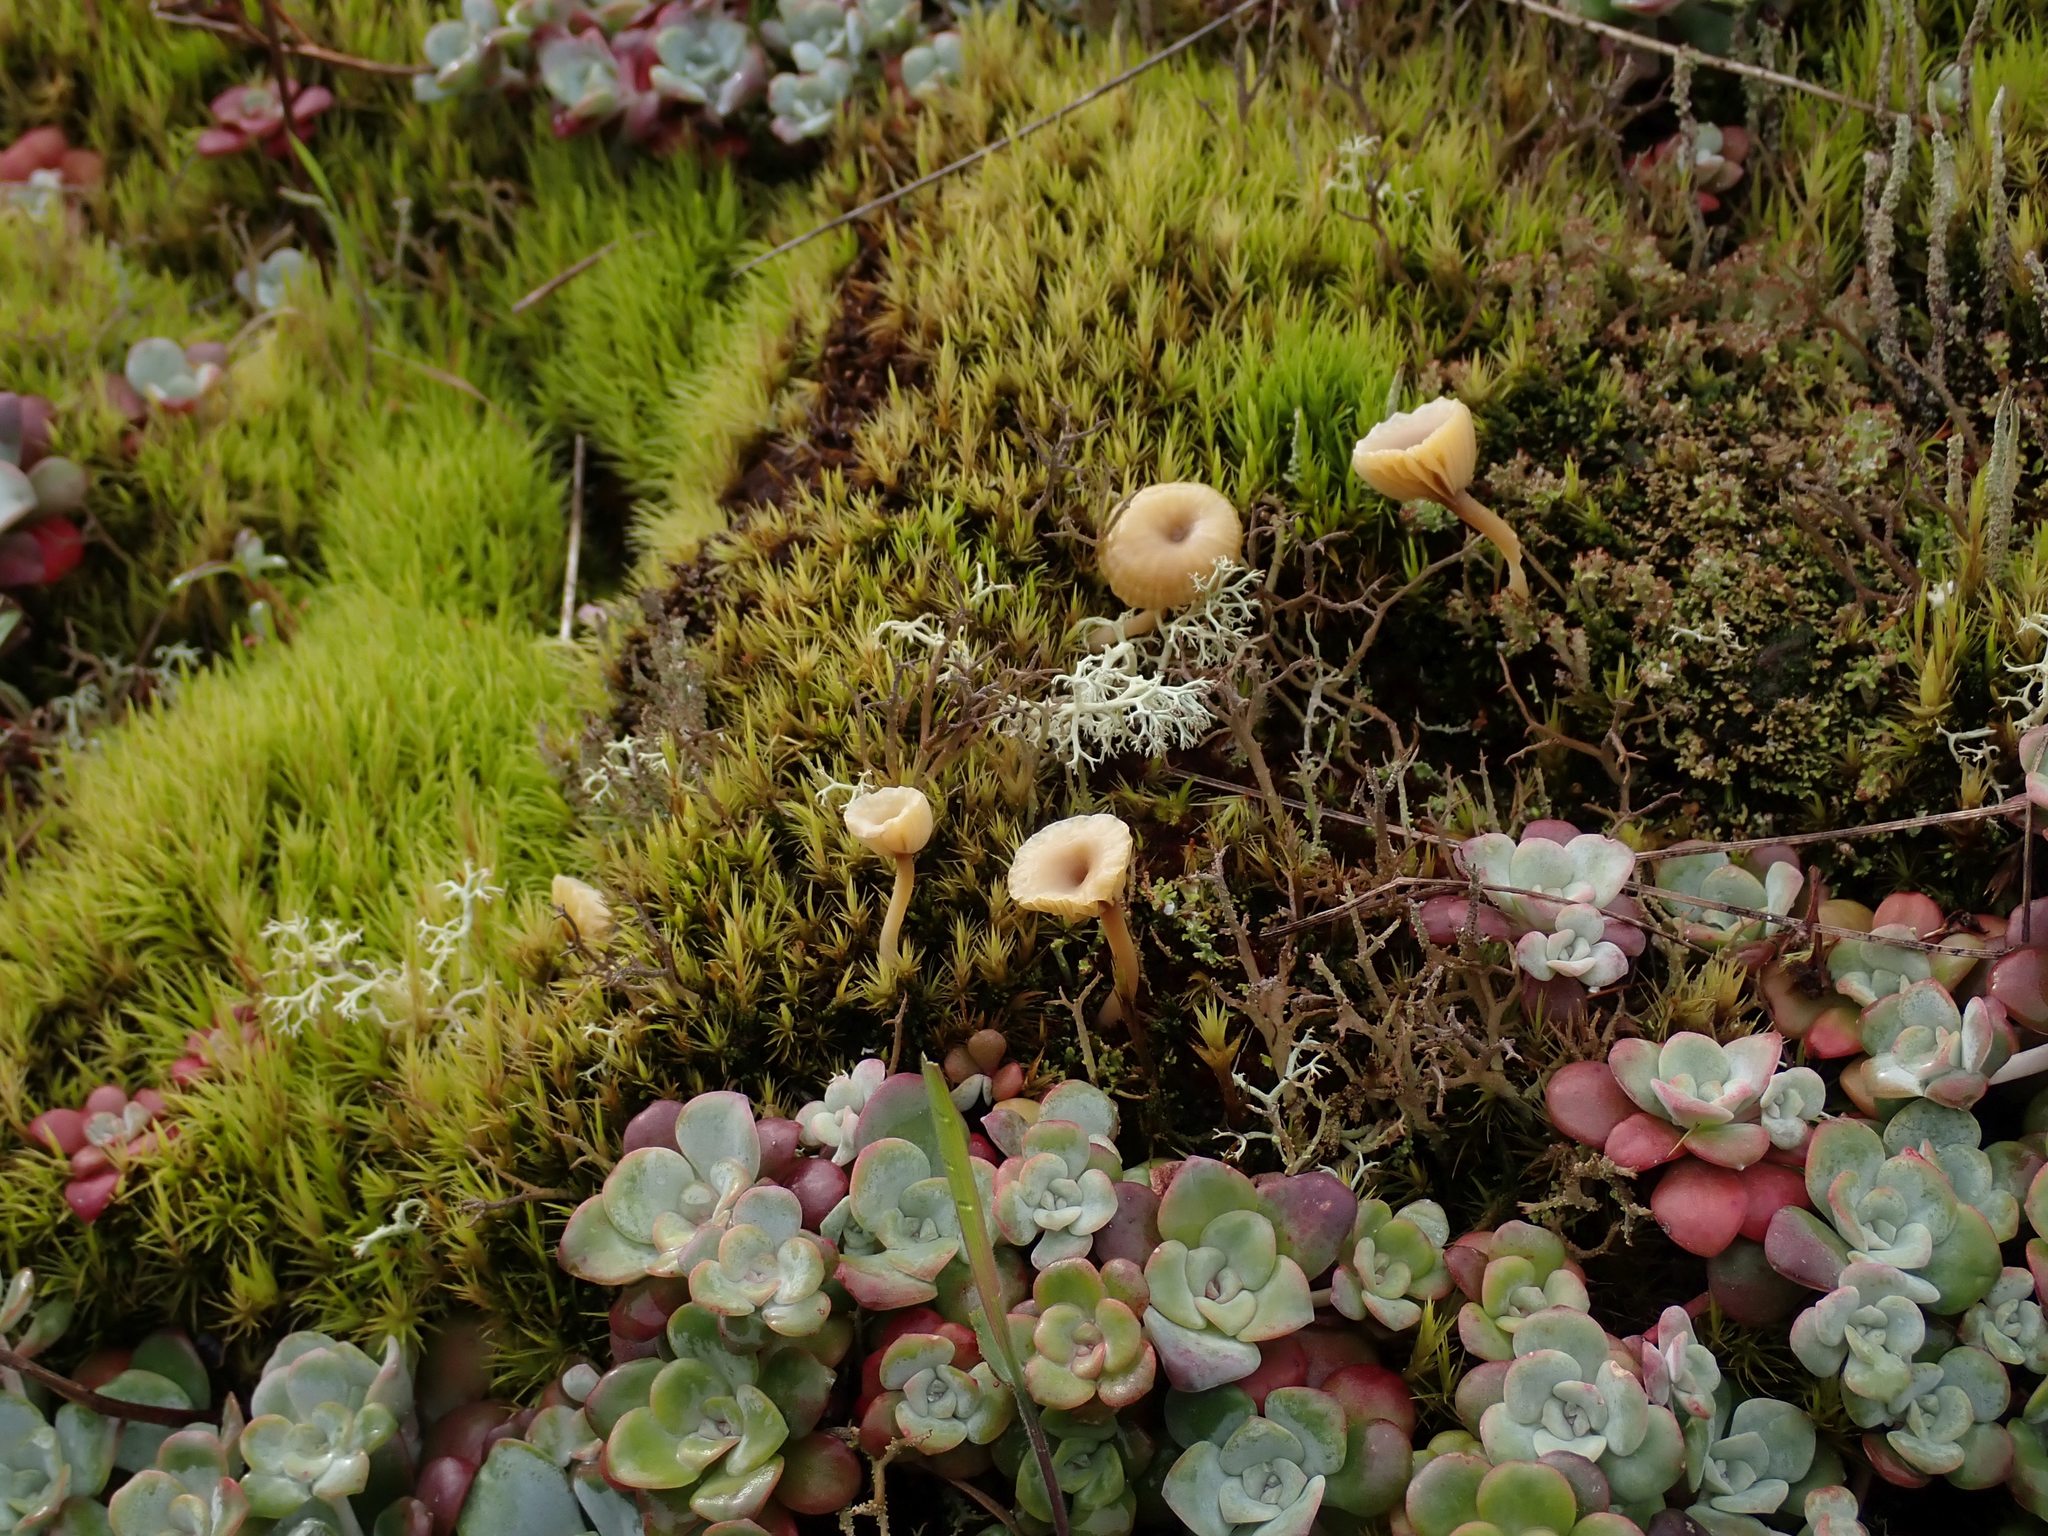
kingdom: Fungi
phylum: Basidiomycota
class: Agaricomycetes
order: Agaricales
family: Hygrophoraceae
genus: Lichenomphalia
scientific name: Lichenomphalia
